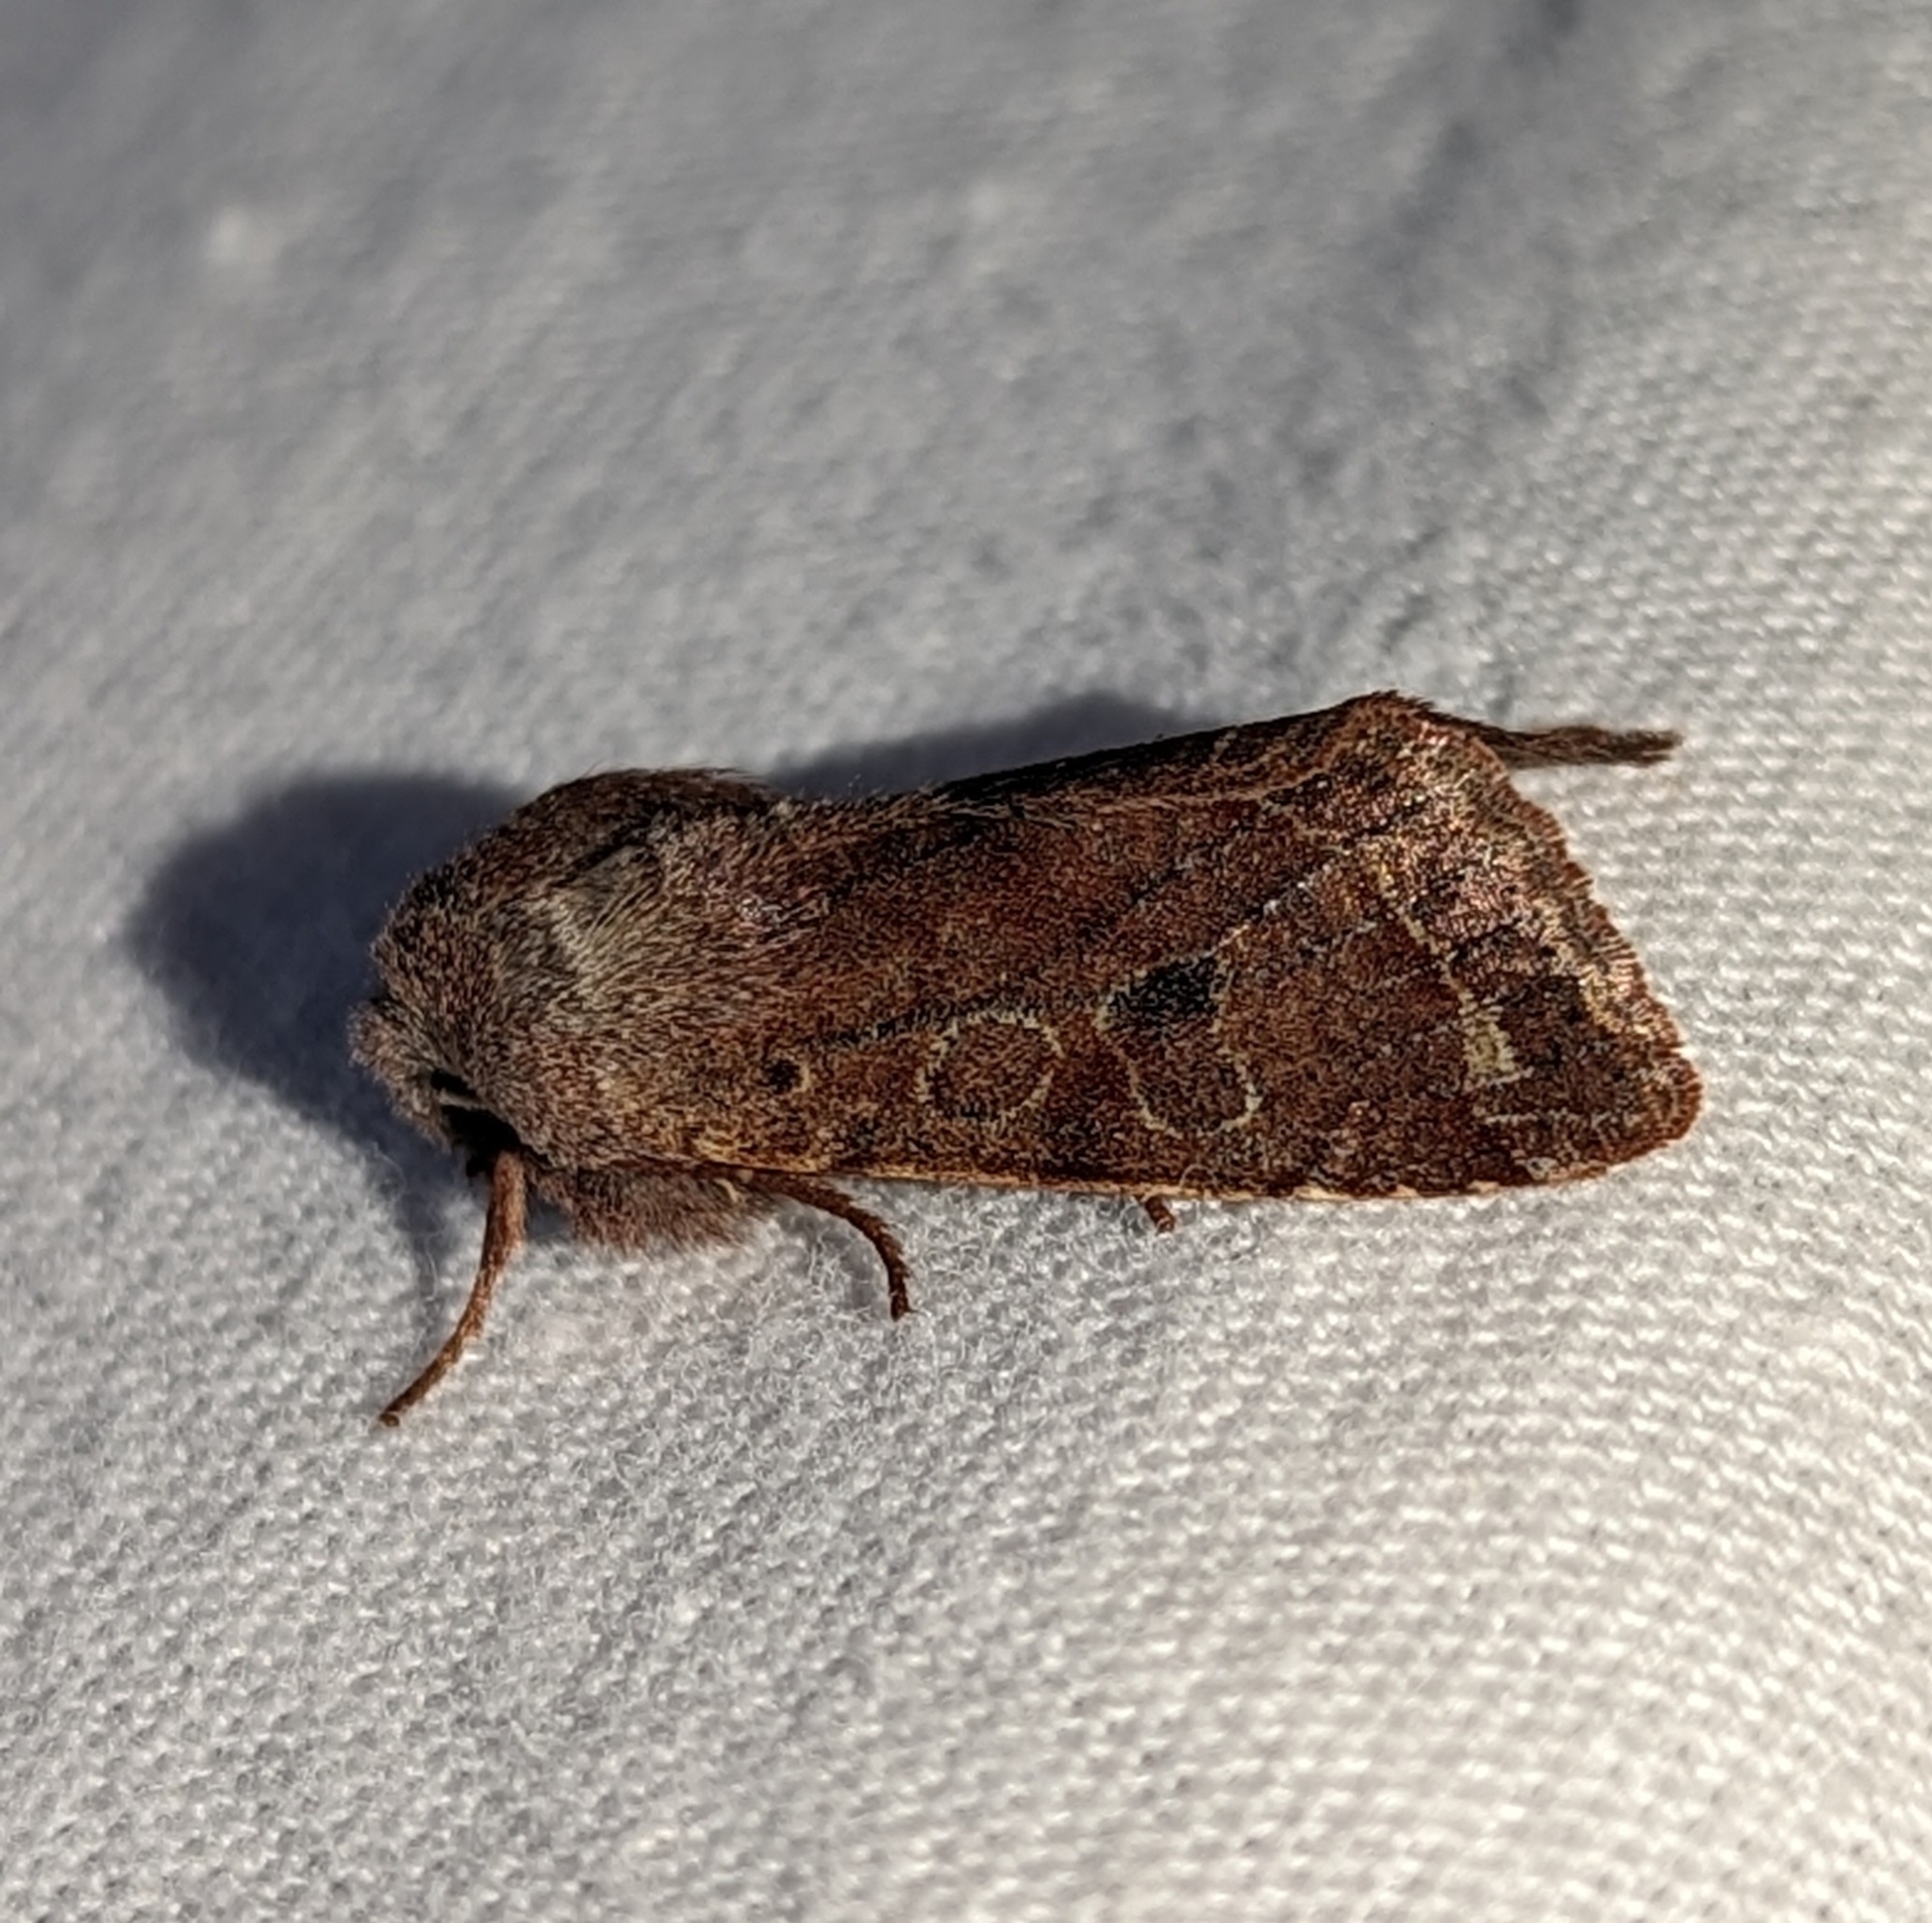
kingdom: Animalia
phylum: Arthropoda
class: Insecta
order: Lepidoptera
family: Noctuidae
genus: Orthosia
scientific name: Orthosia hibisci
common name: Green fruitworm
